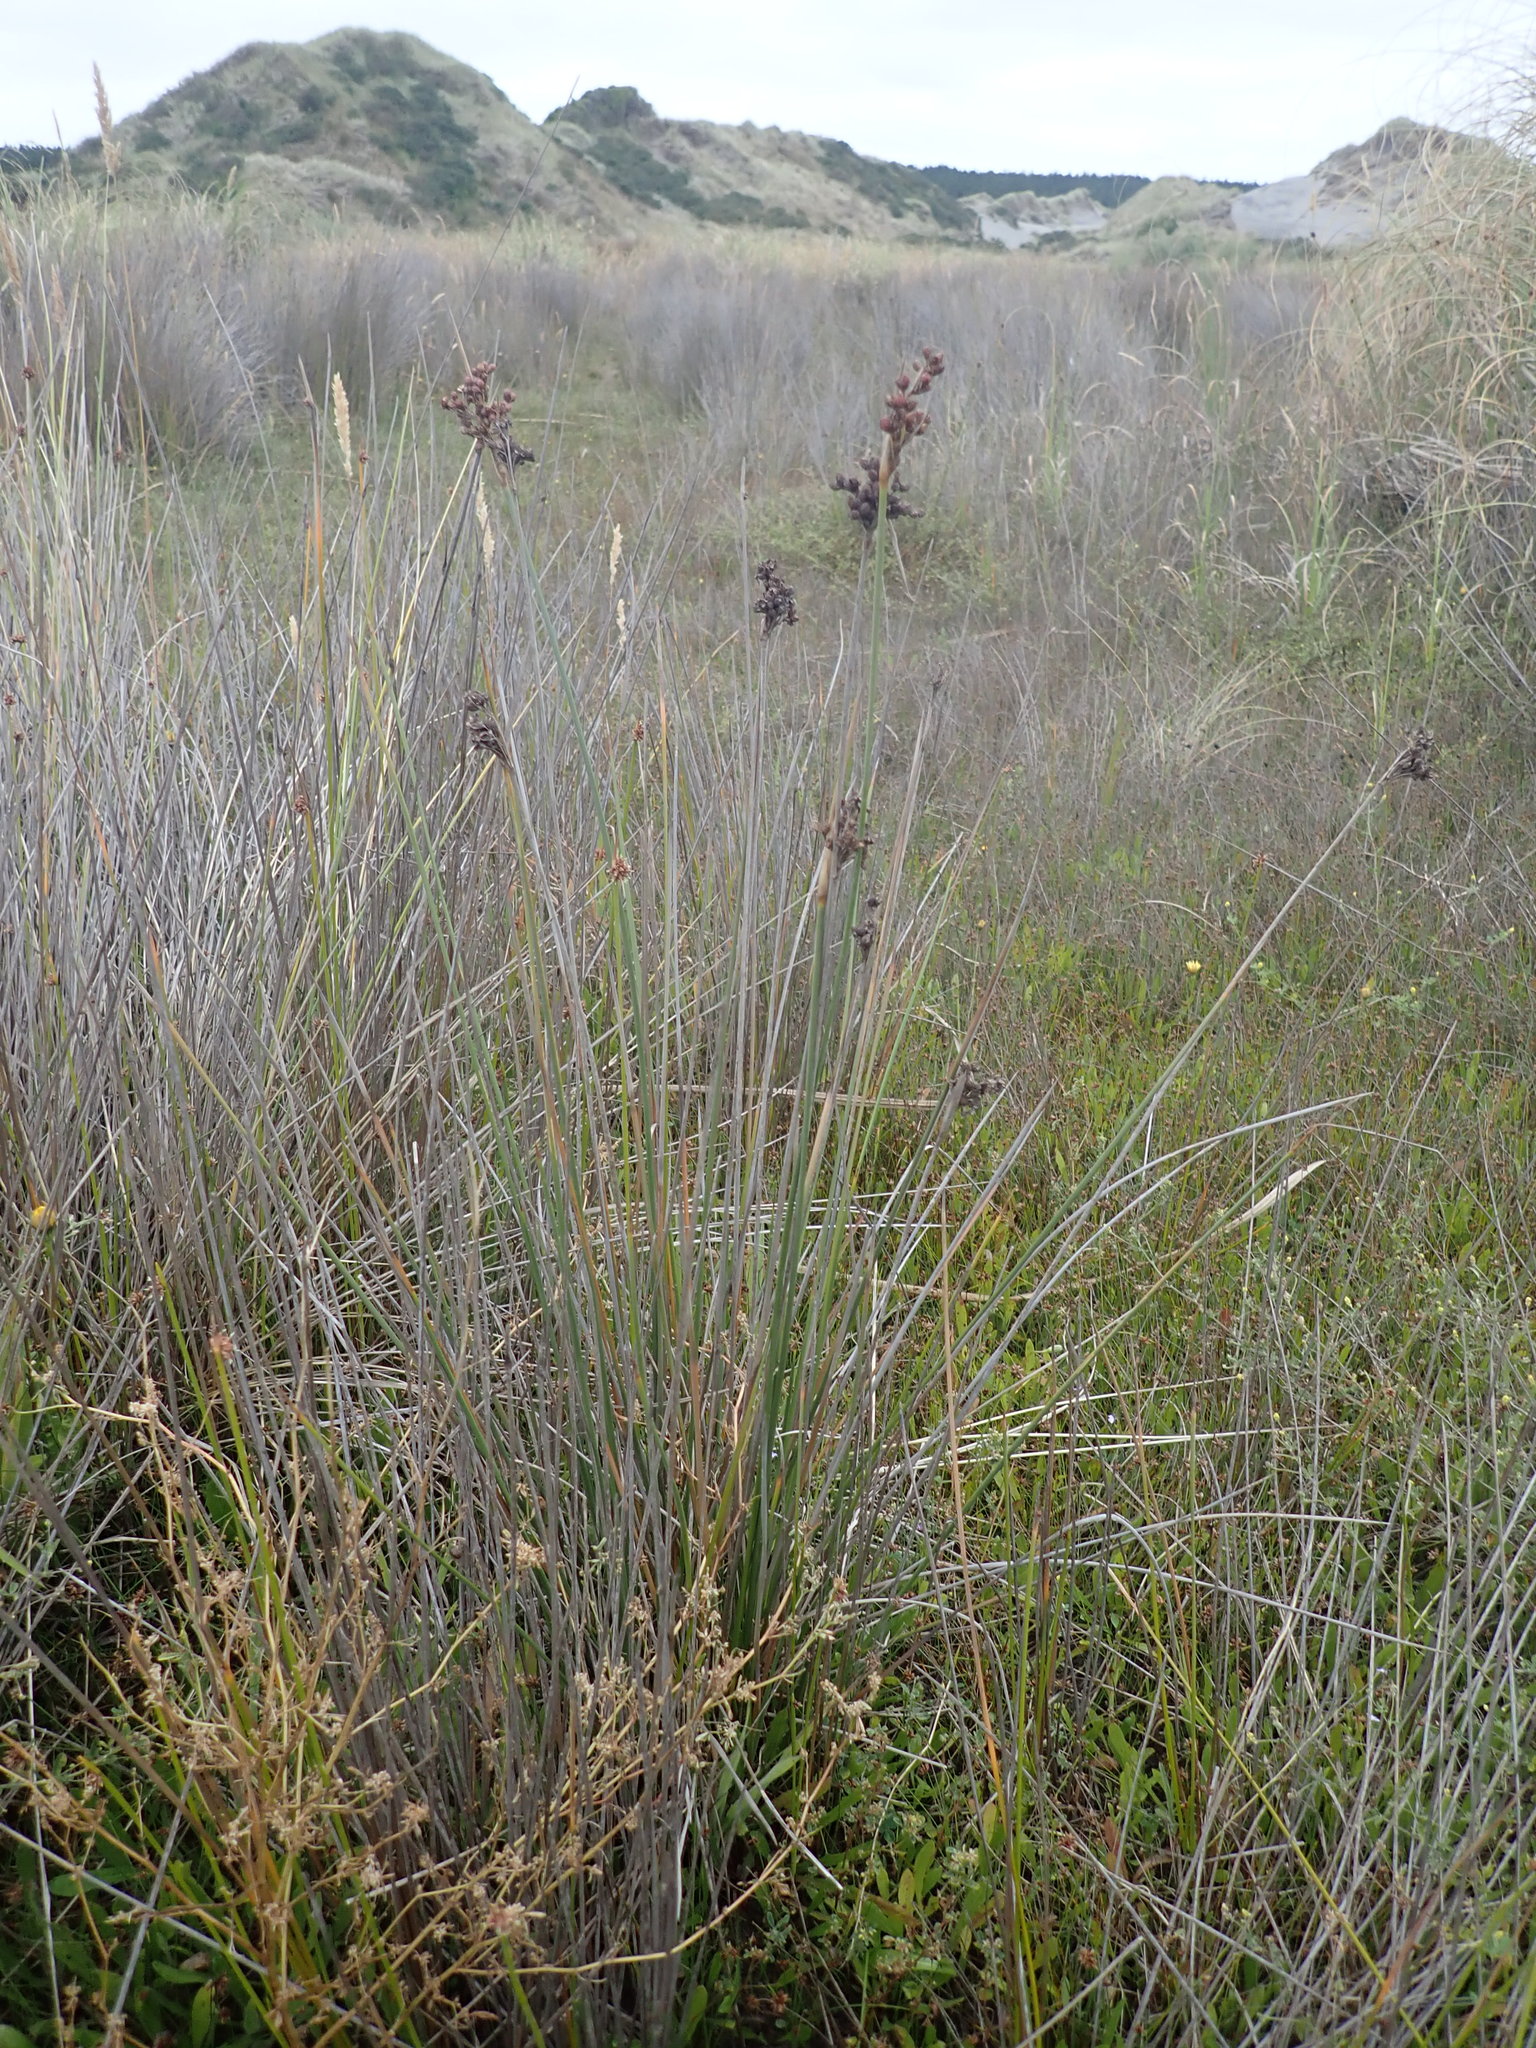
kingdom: Plantae
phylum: Tracheophyta
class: Liliopsida
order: Poales
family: Juncaceae
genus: Juncus
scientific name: Juncus acutus
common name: Sharp rush
